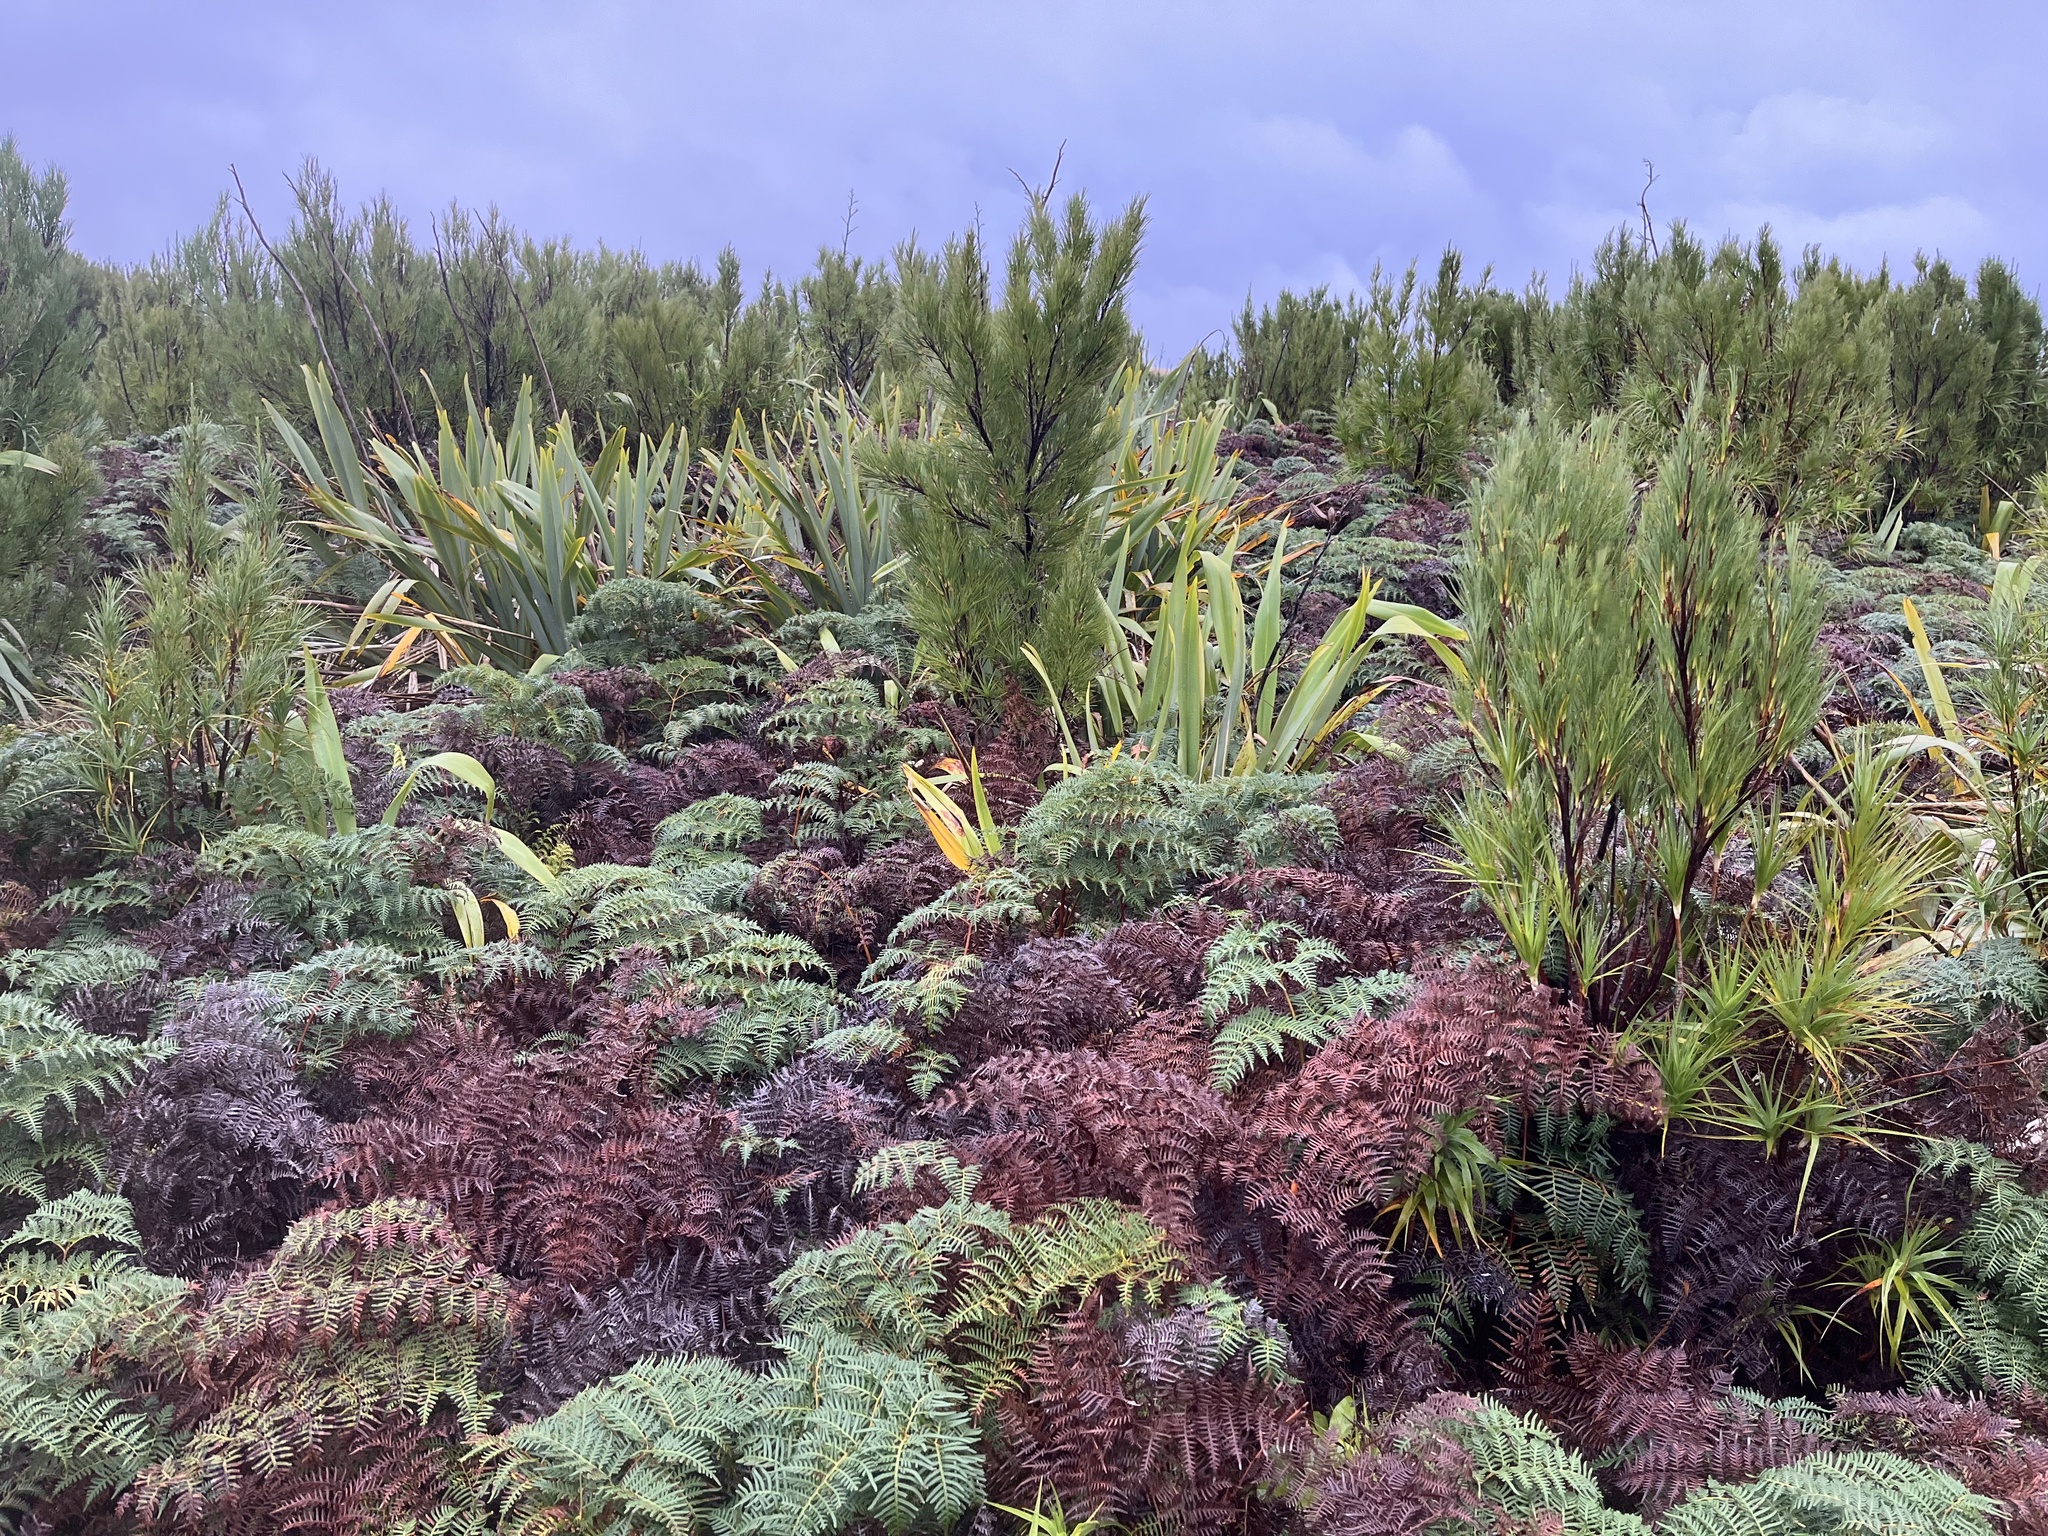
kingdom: Plantae
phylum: Tracheophyta
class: Polypodiopsida
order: Polypodiales
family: Dennstaedtiaceae
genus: Pteridium
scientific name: Pteridium esculentum
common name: Bracken fern
